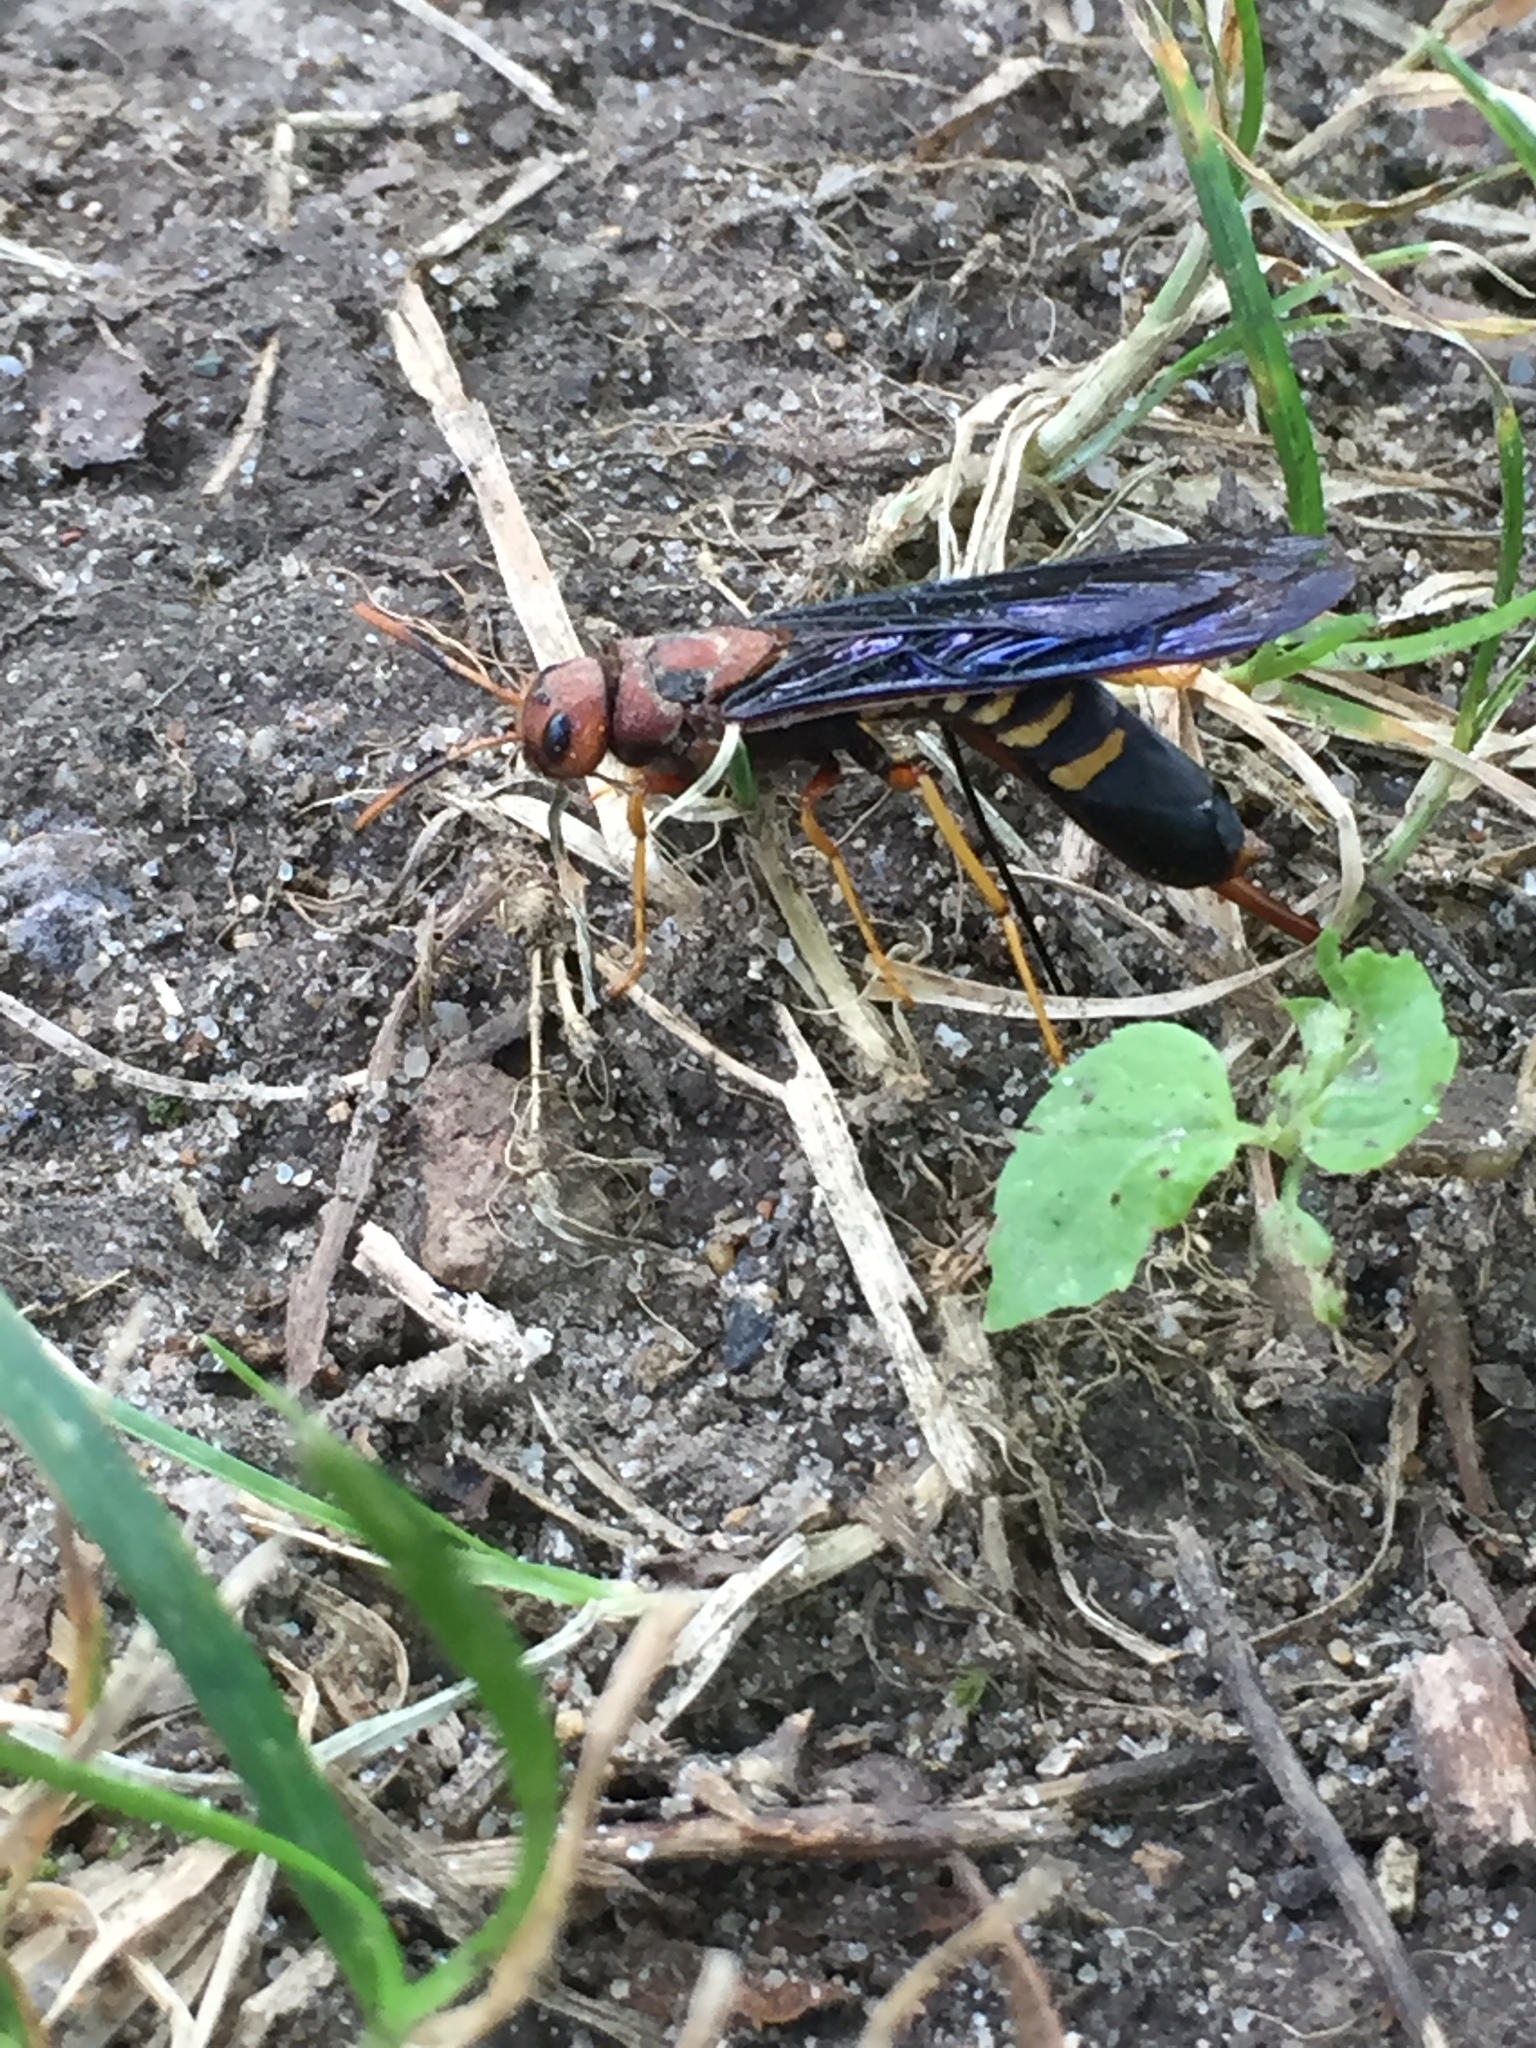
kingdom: Animalia
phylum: Arthropoda
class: Insecta
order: Hymenoptera
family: Siricidae
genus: Tremex
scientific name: Tremex columba
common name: Wasp
